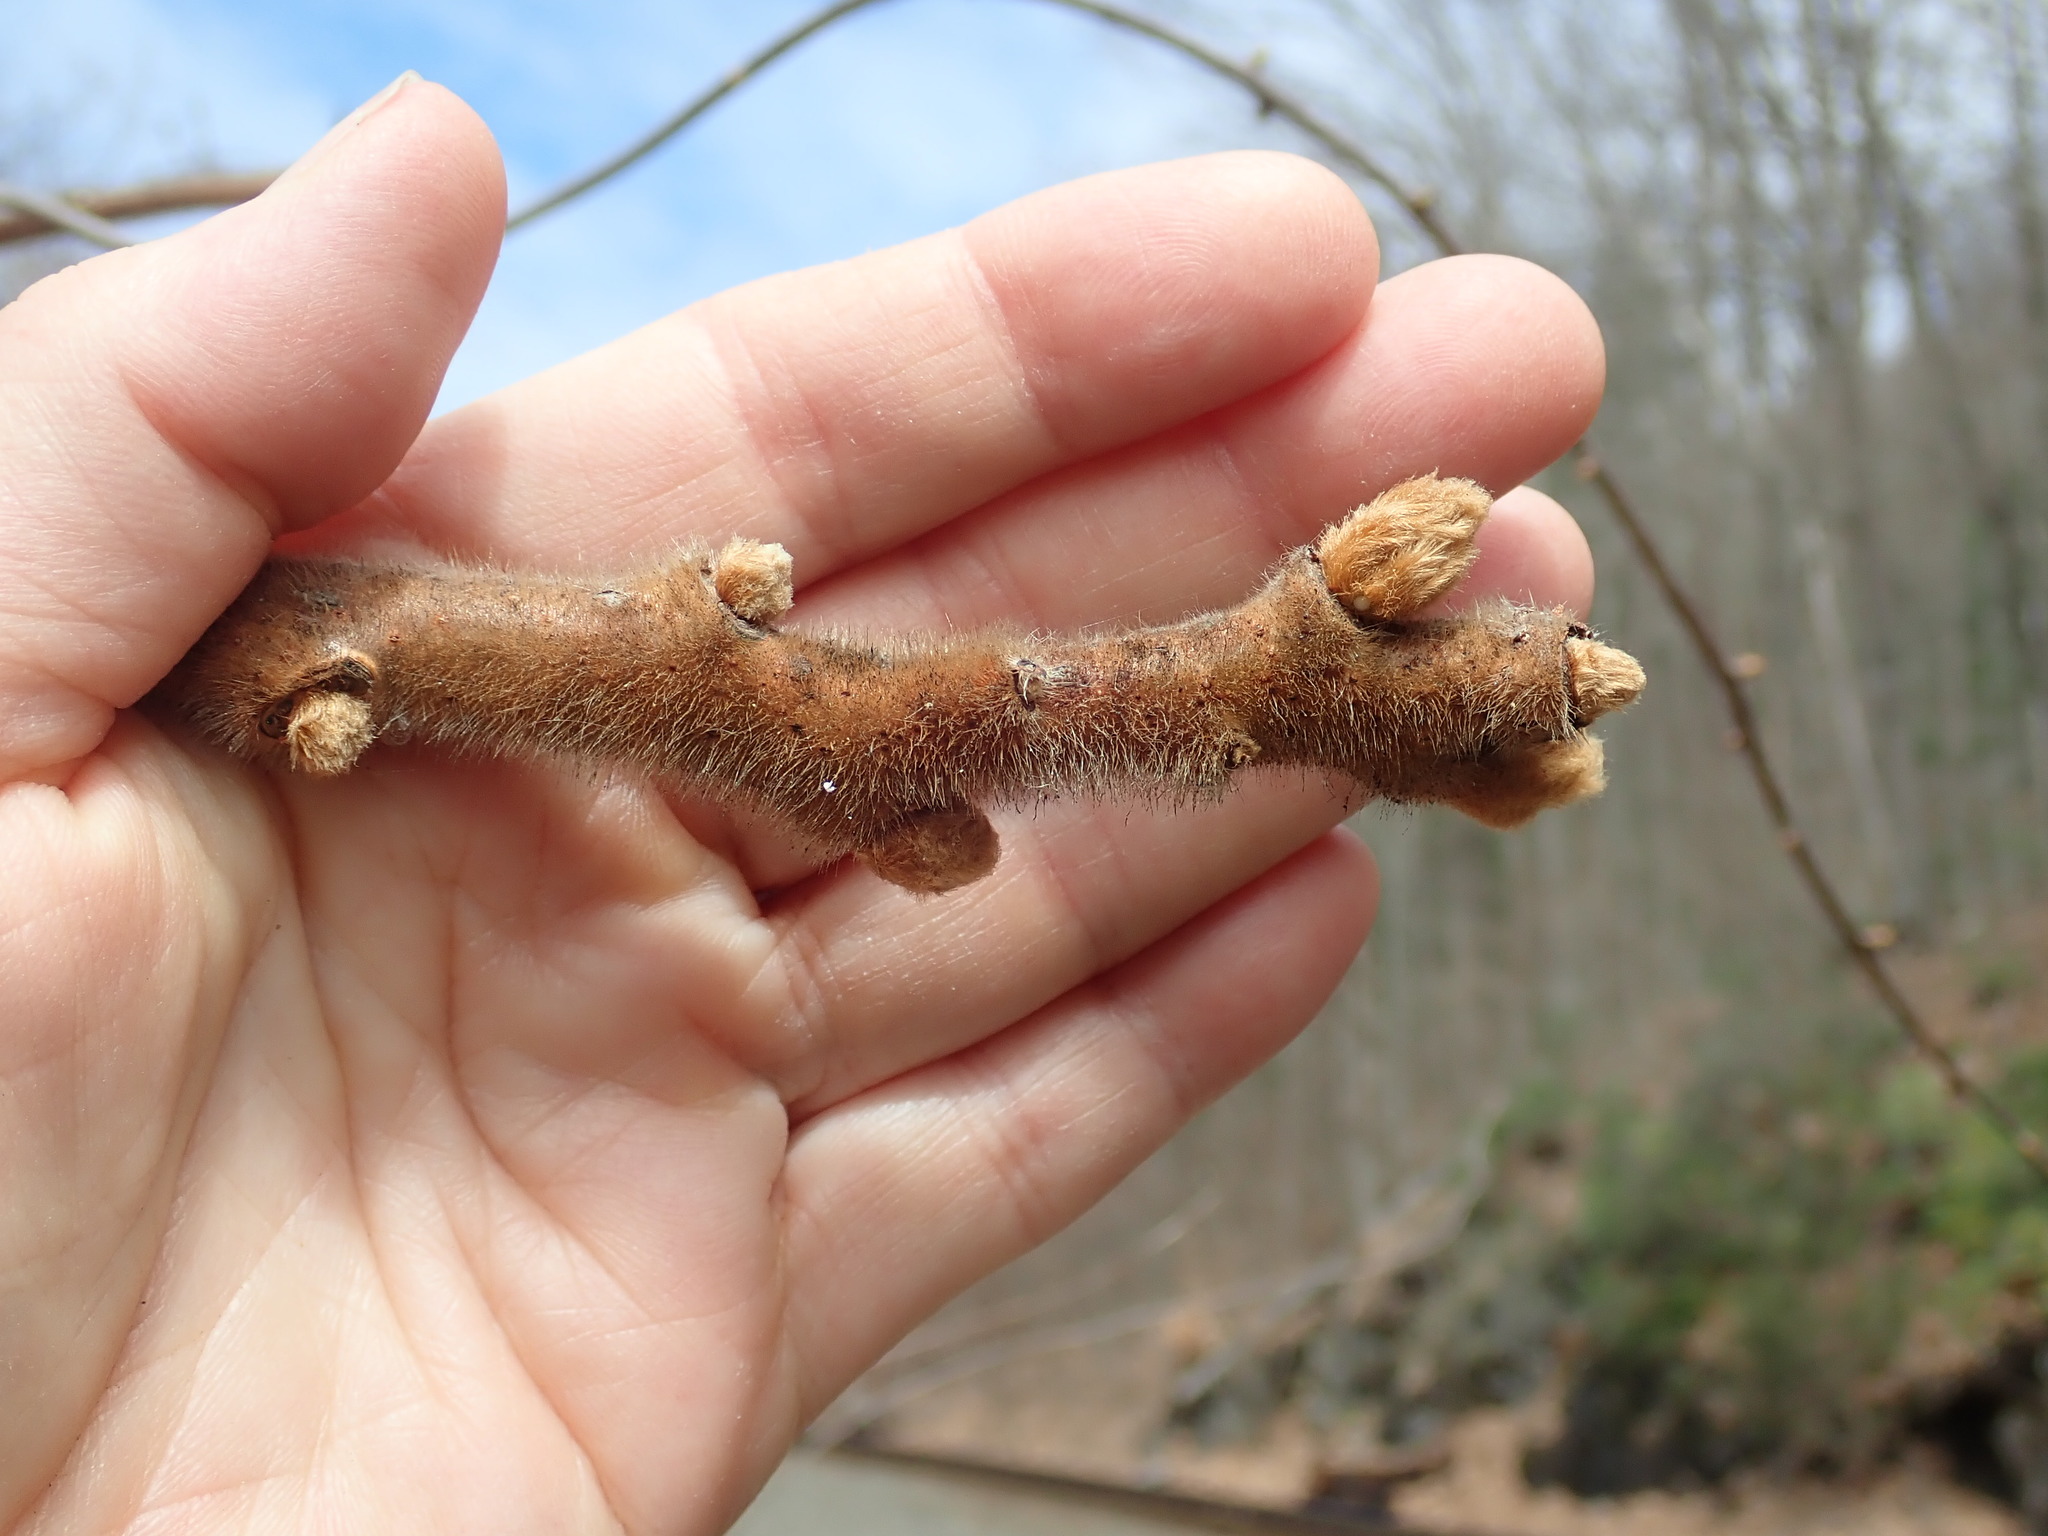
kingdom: Plantae
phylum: Tracheophyta
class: Magnoliopsida
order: Sapindales
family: Anacardiaceae
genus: Rhus
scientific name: Rhus typhina
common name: Staghorn sumac
